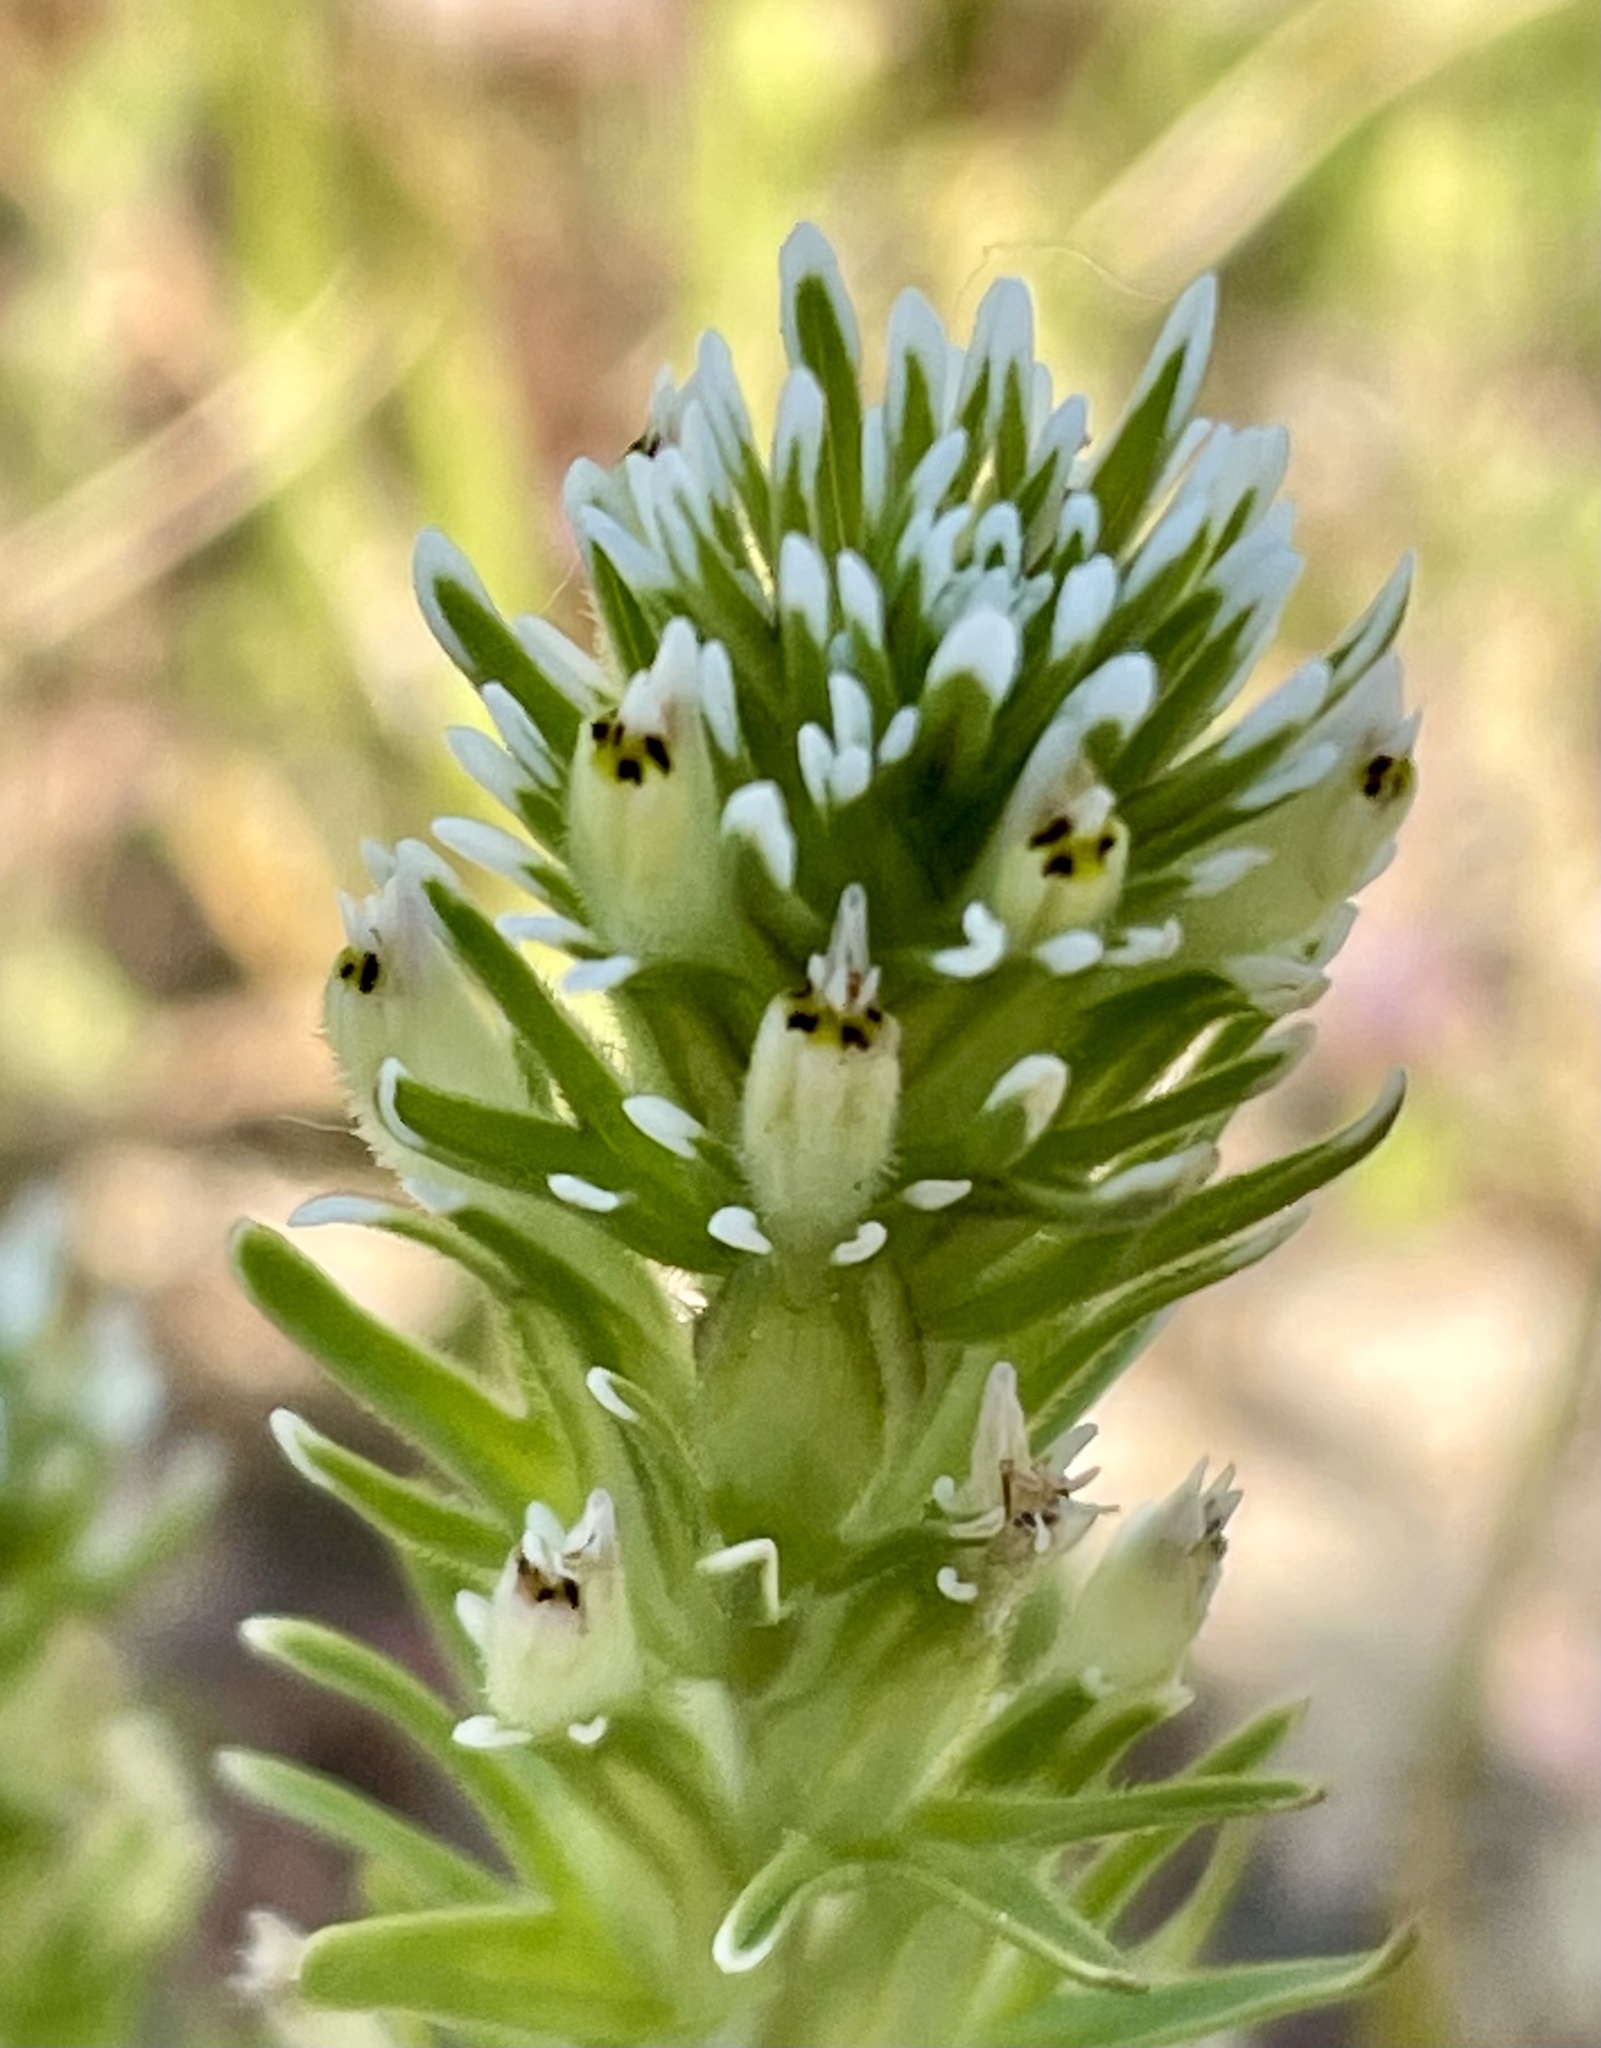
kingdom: Plantae
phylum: Tracheophyta
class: Magnoliopsida
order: Lamiales
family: Orobanchaceae
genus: Castilleja
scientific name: Castilleja attenuata
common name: Valley tassels
